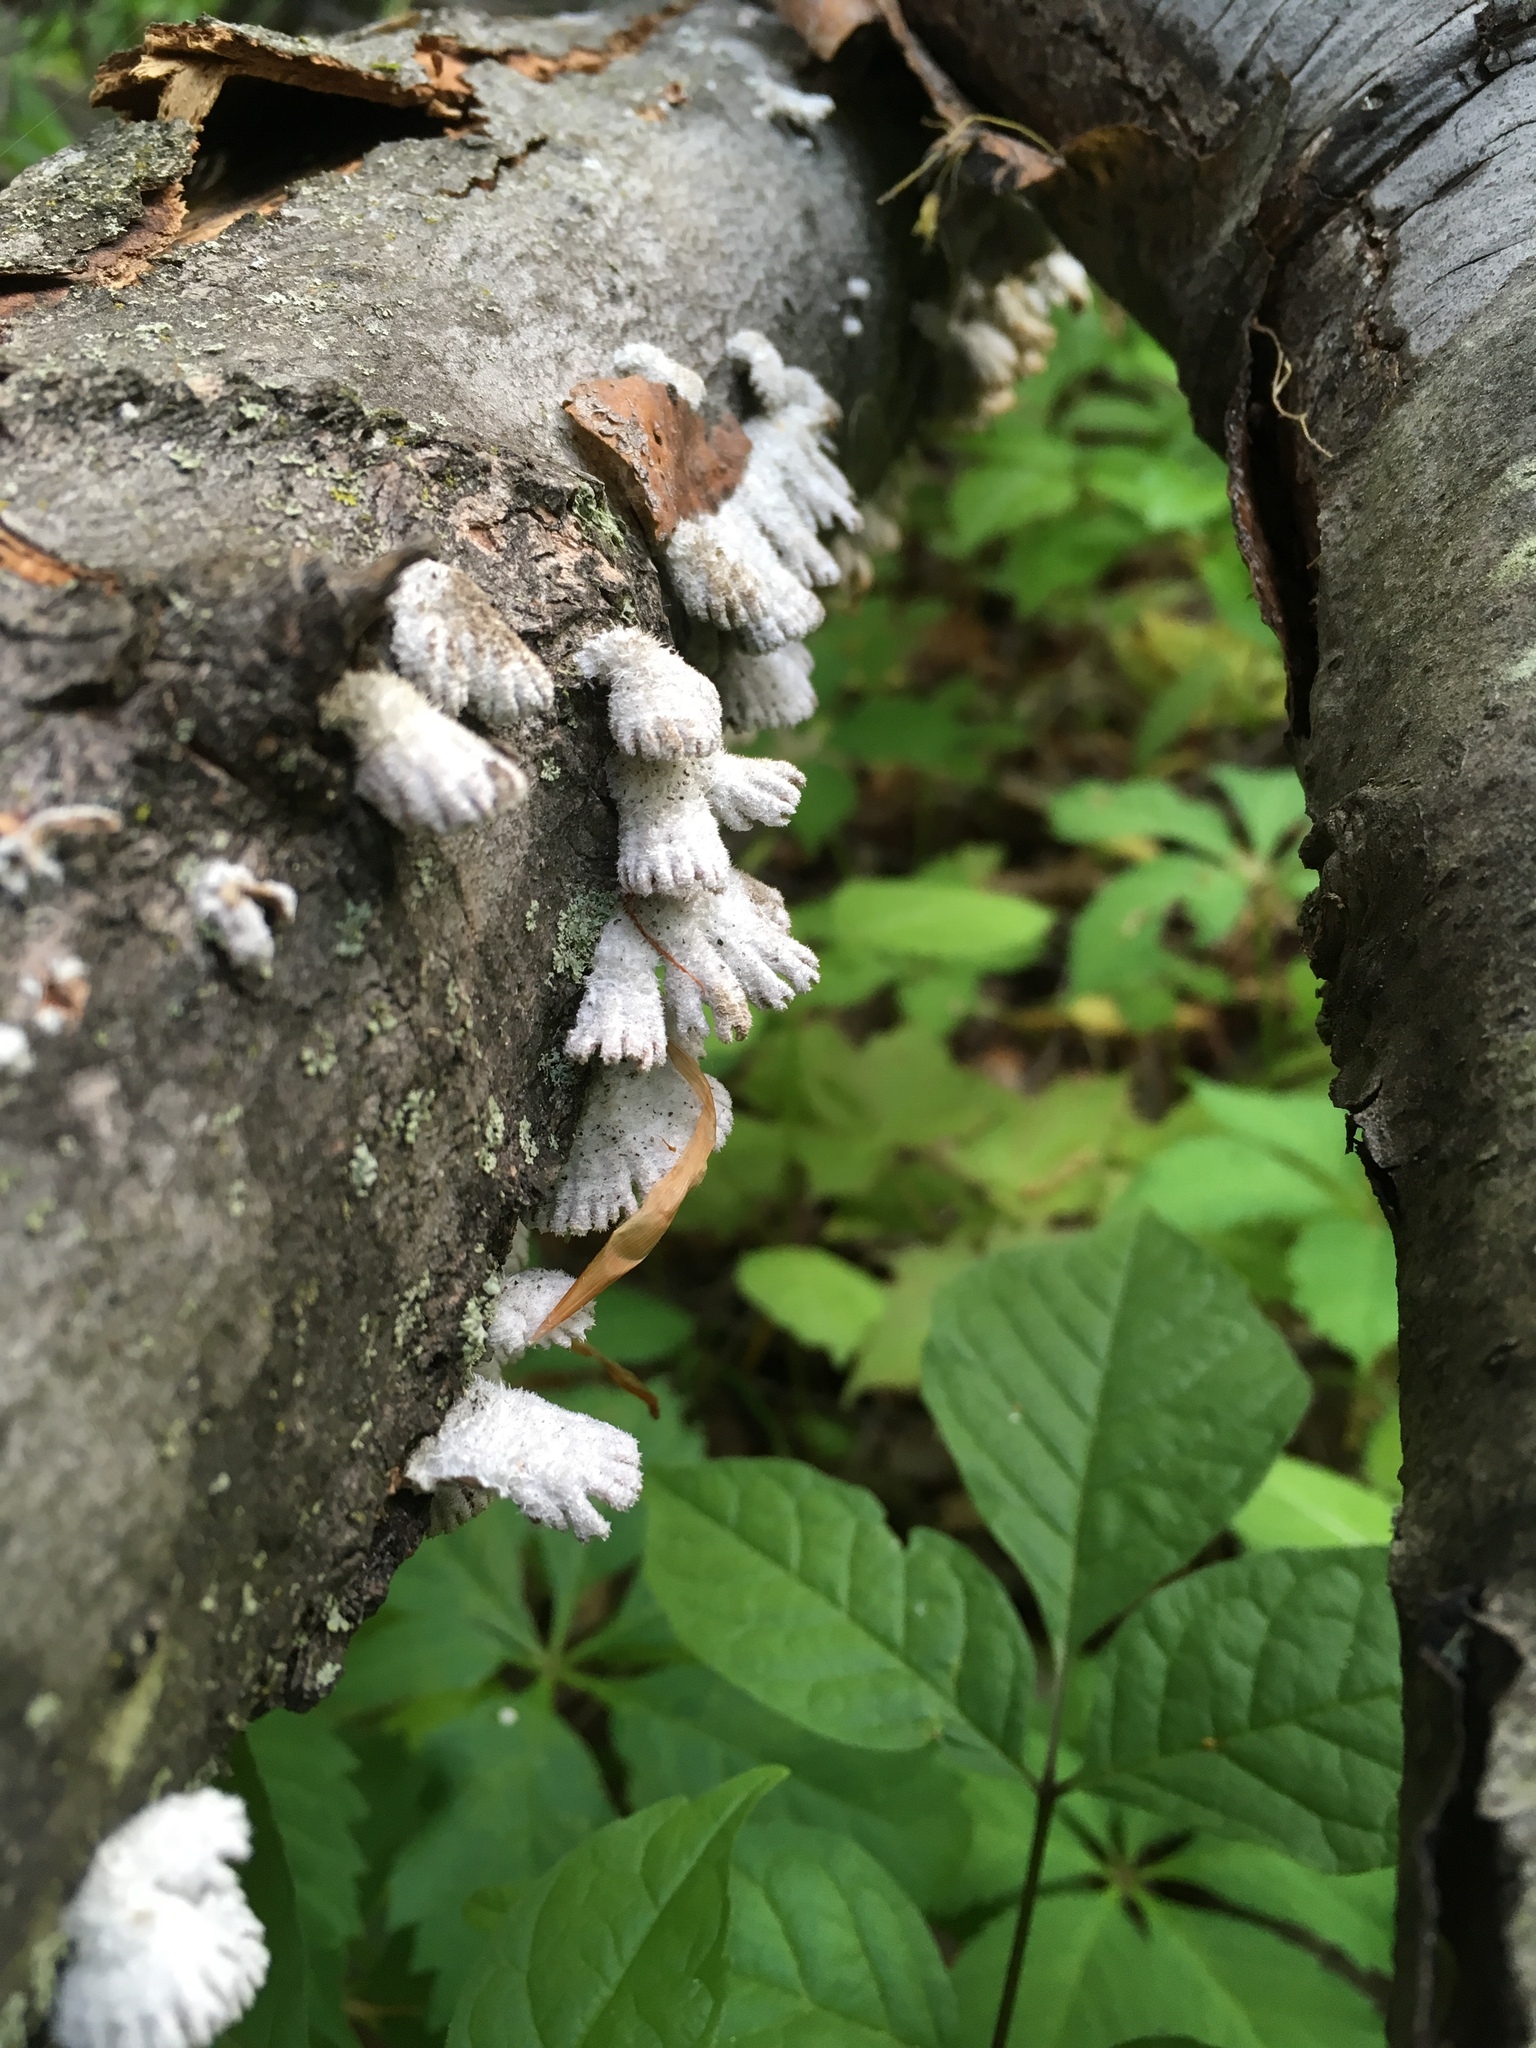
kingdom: Fungi
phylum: Basidiomycota
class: Agaricomycetes
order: Agaricales
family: Schizophyllaceae
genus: Schizophyllum
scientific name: Schizophyllum commune
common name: Common porecrust
